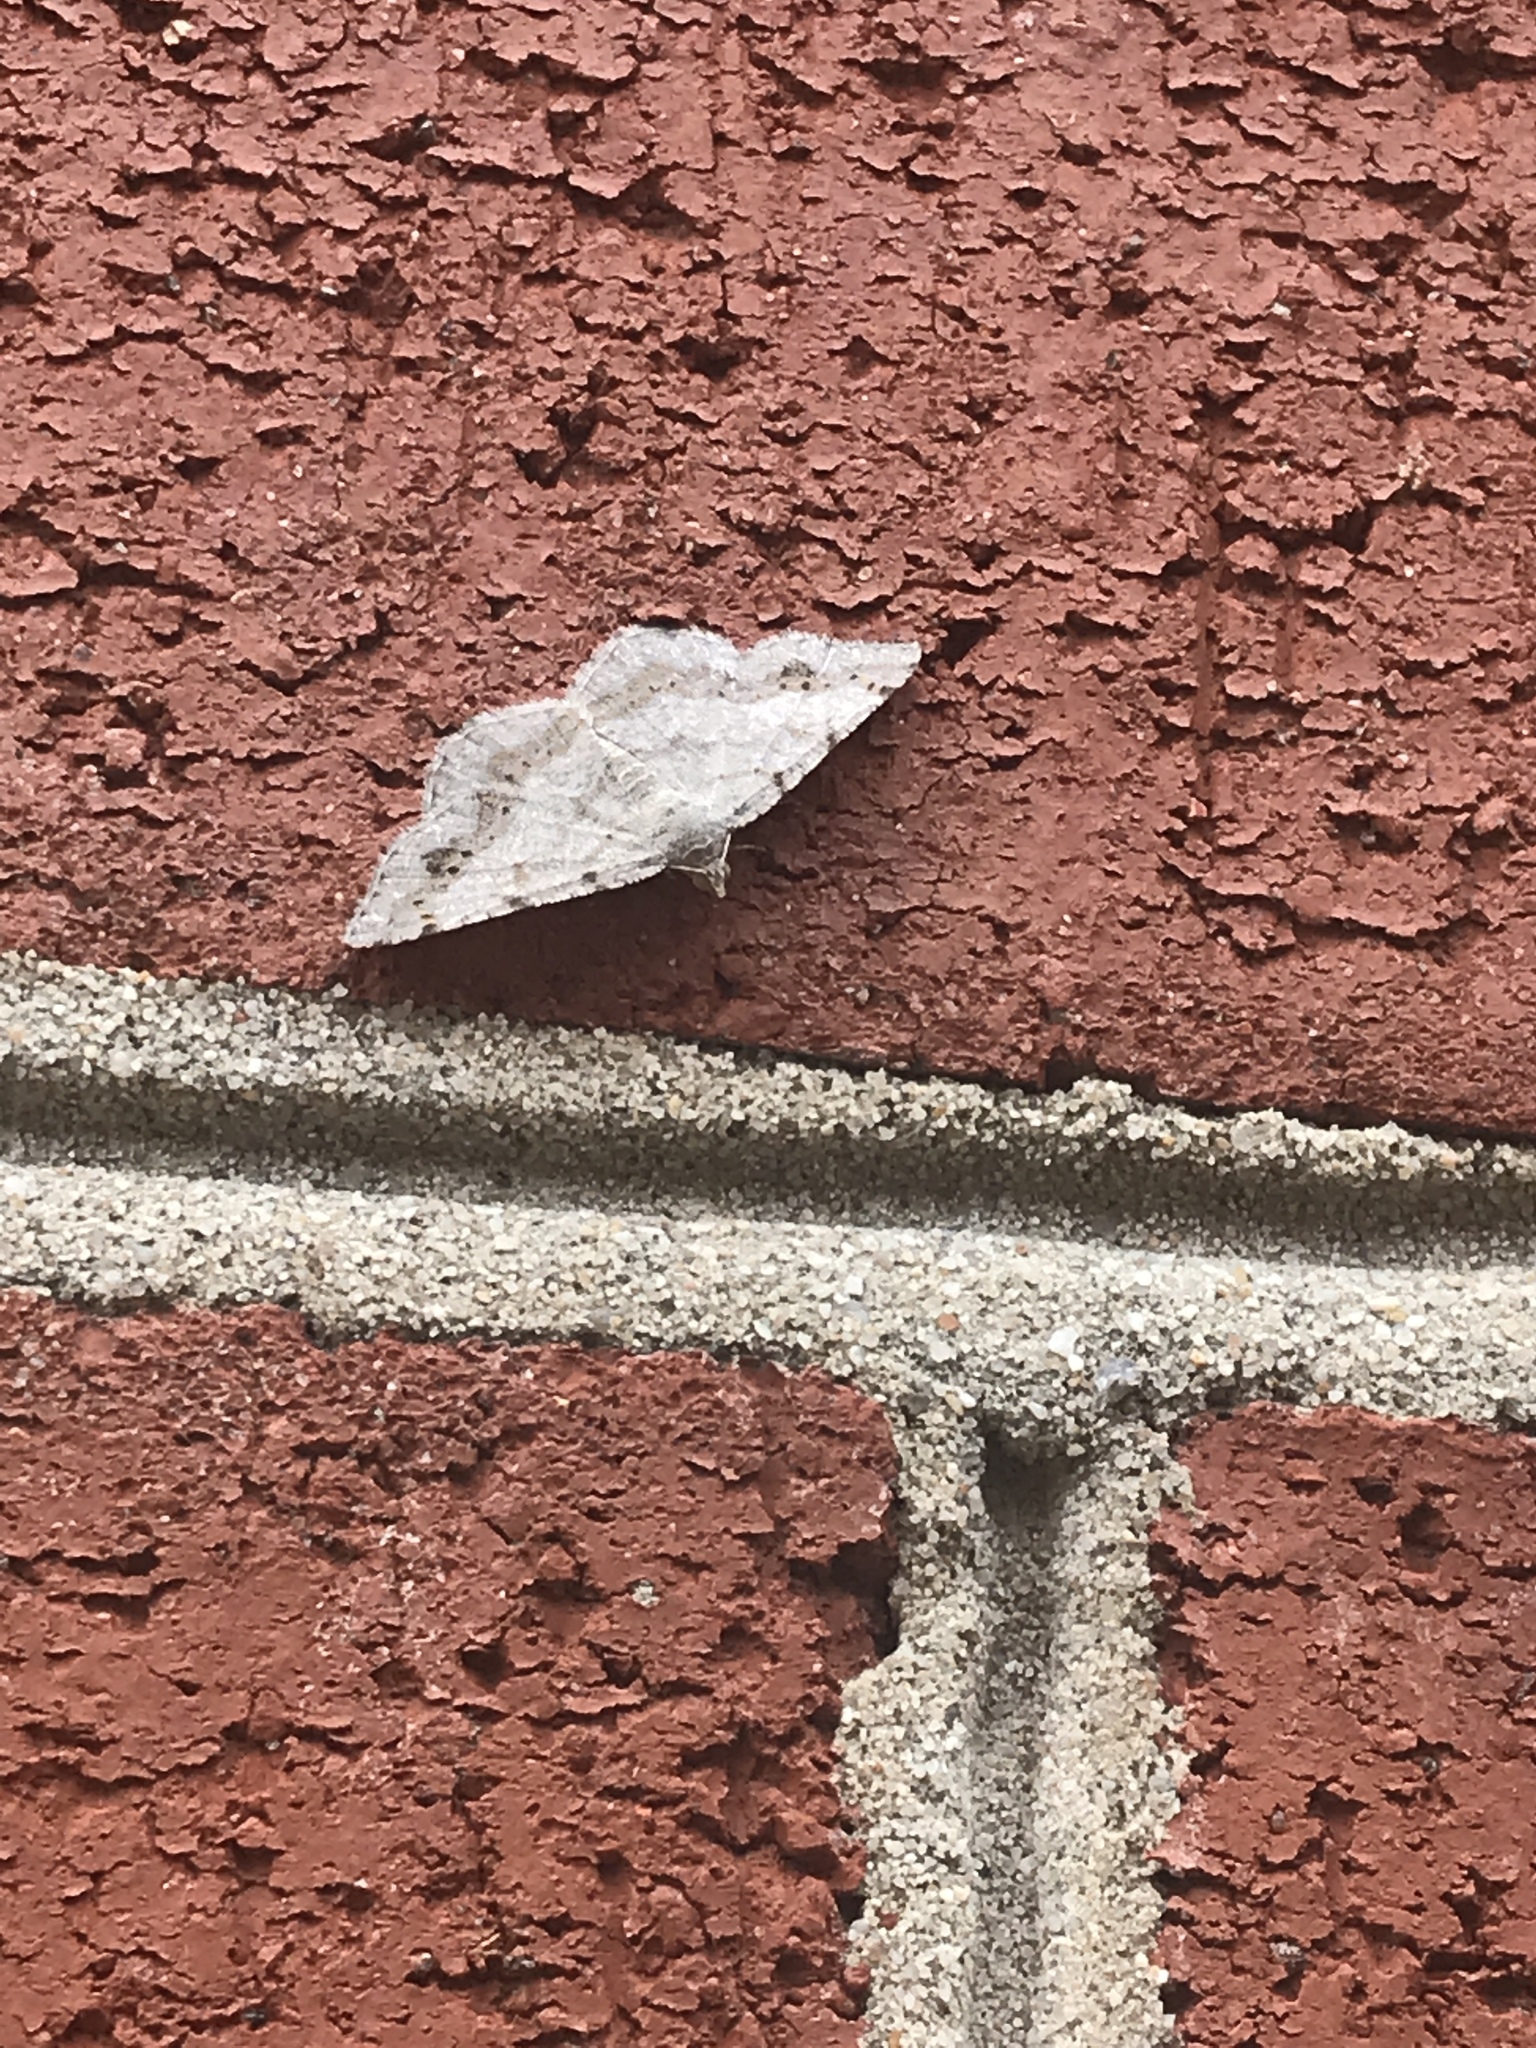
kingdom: Animalia
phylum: Arthropoda
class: Insecta
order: Lepidoptera
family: Geometridae
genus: Digrammia
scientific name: Digrammia ocellinata
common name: Faint-spotted angle
